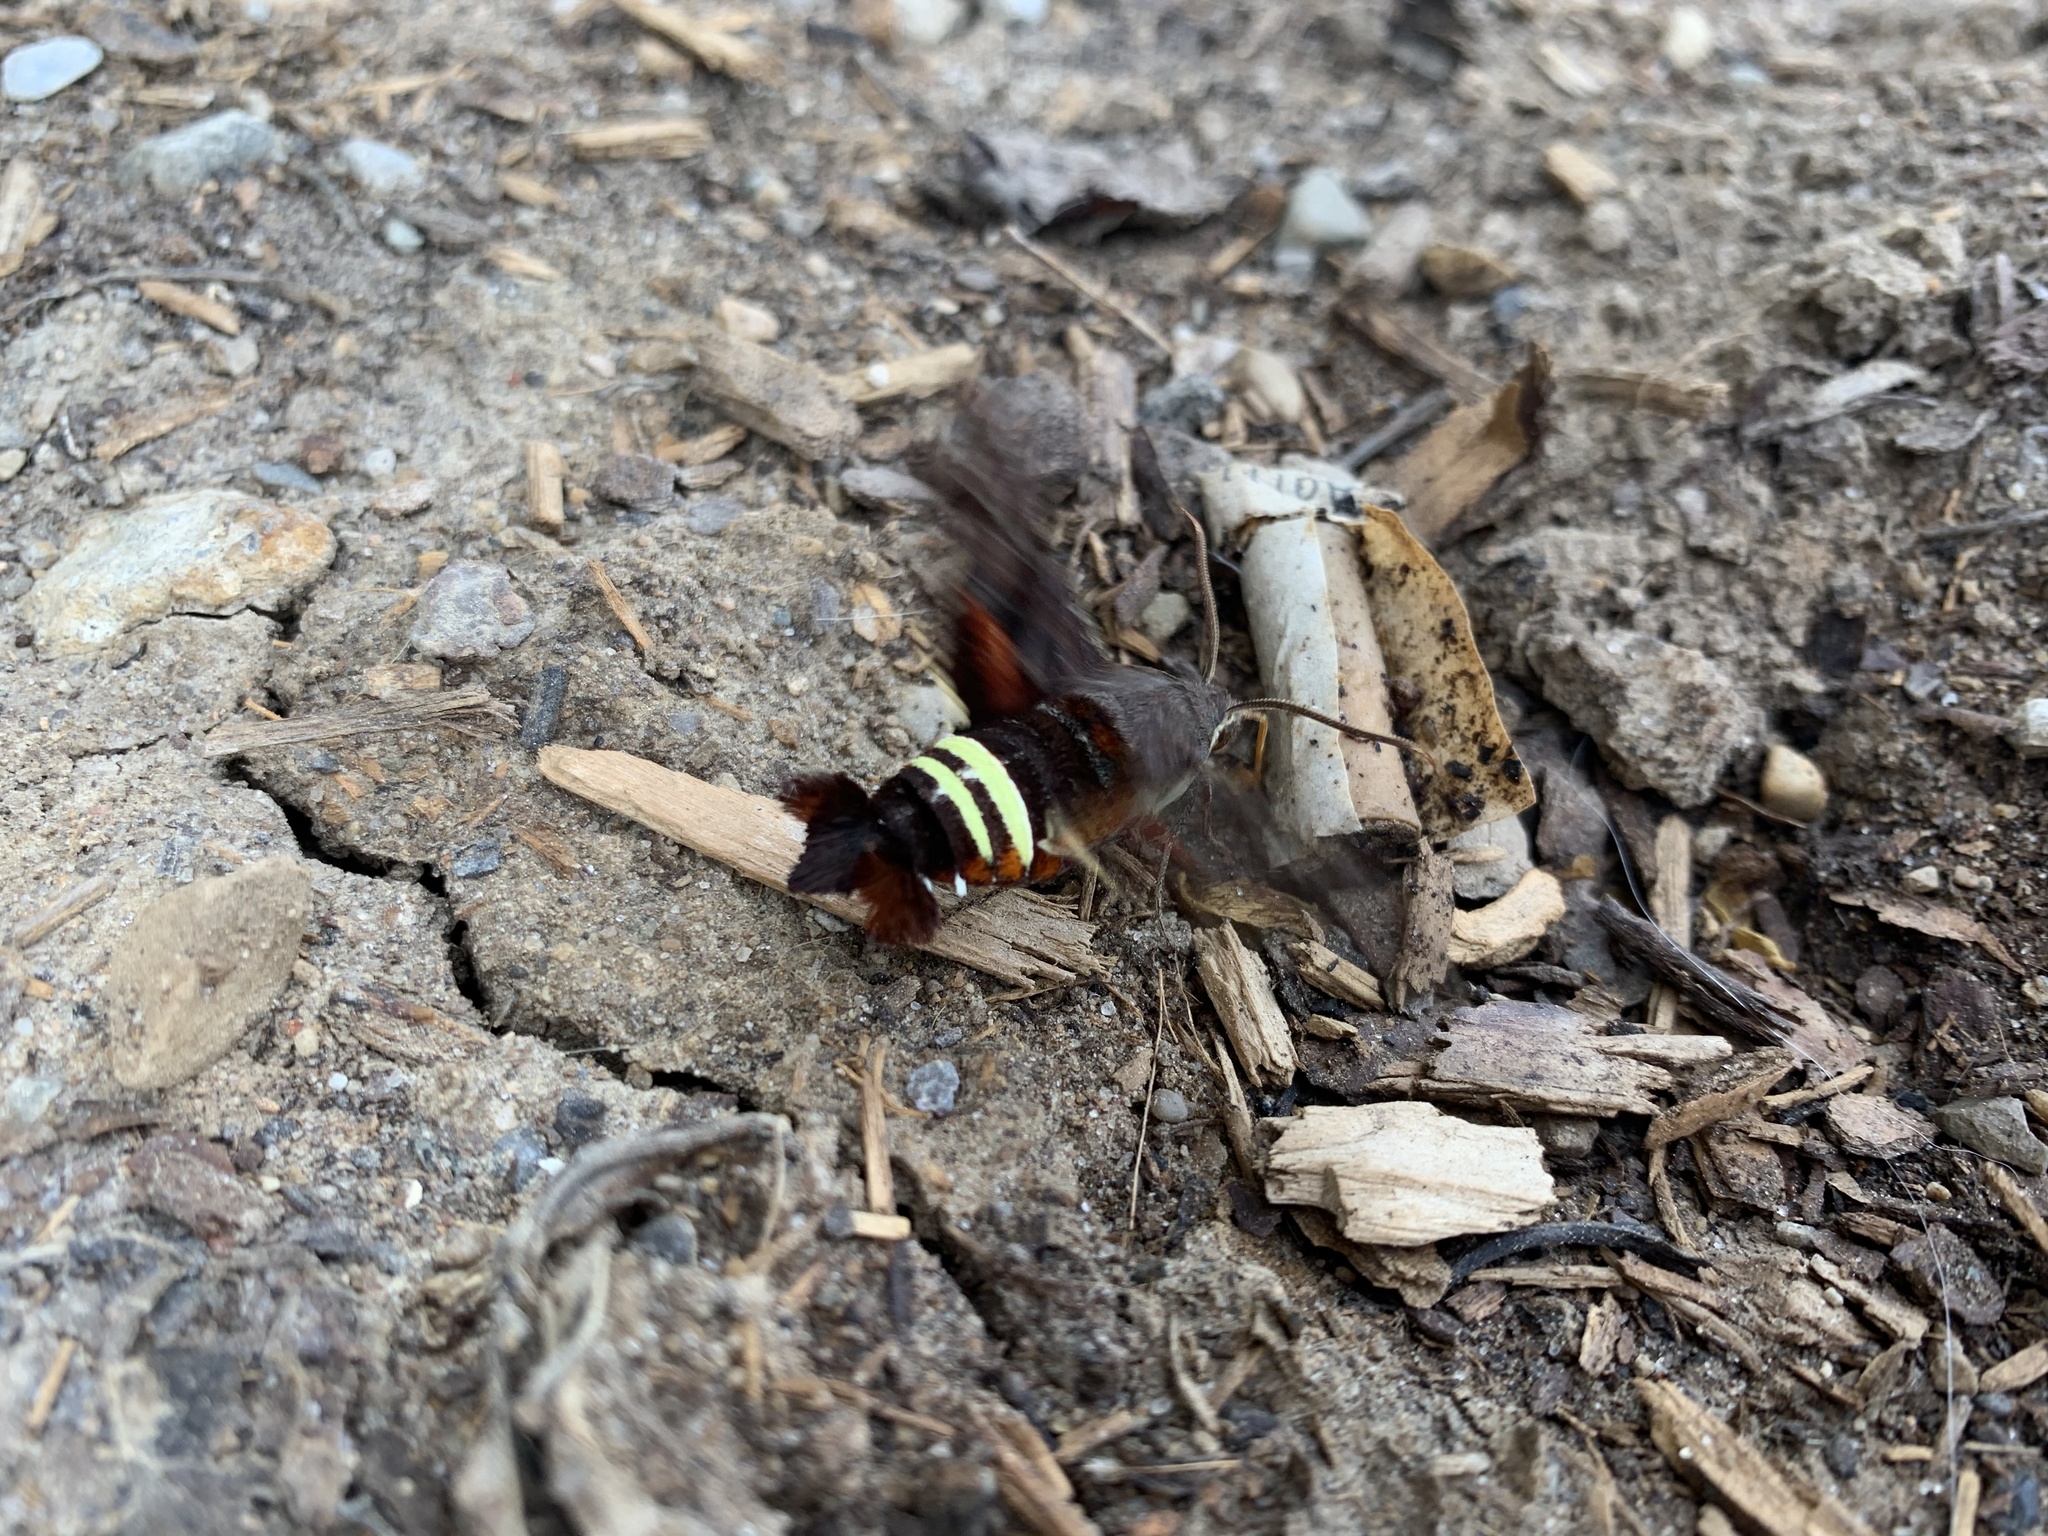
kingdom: Animalia
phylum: Arthropoda
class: Insecta
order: Lepidoptera
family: Sphingidae
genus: Amphion
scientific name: Amphion floridensis
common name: Nessus sphinx
